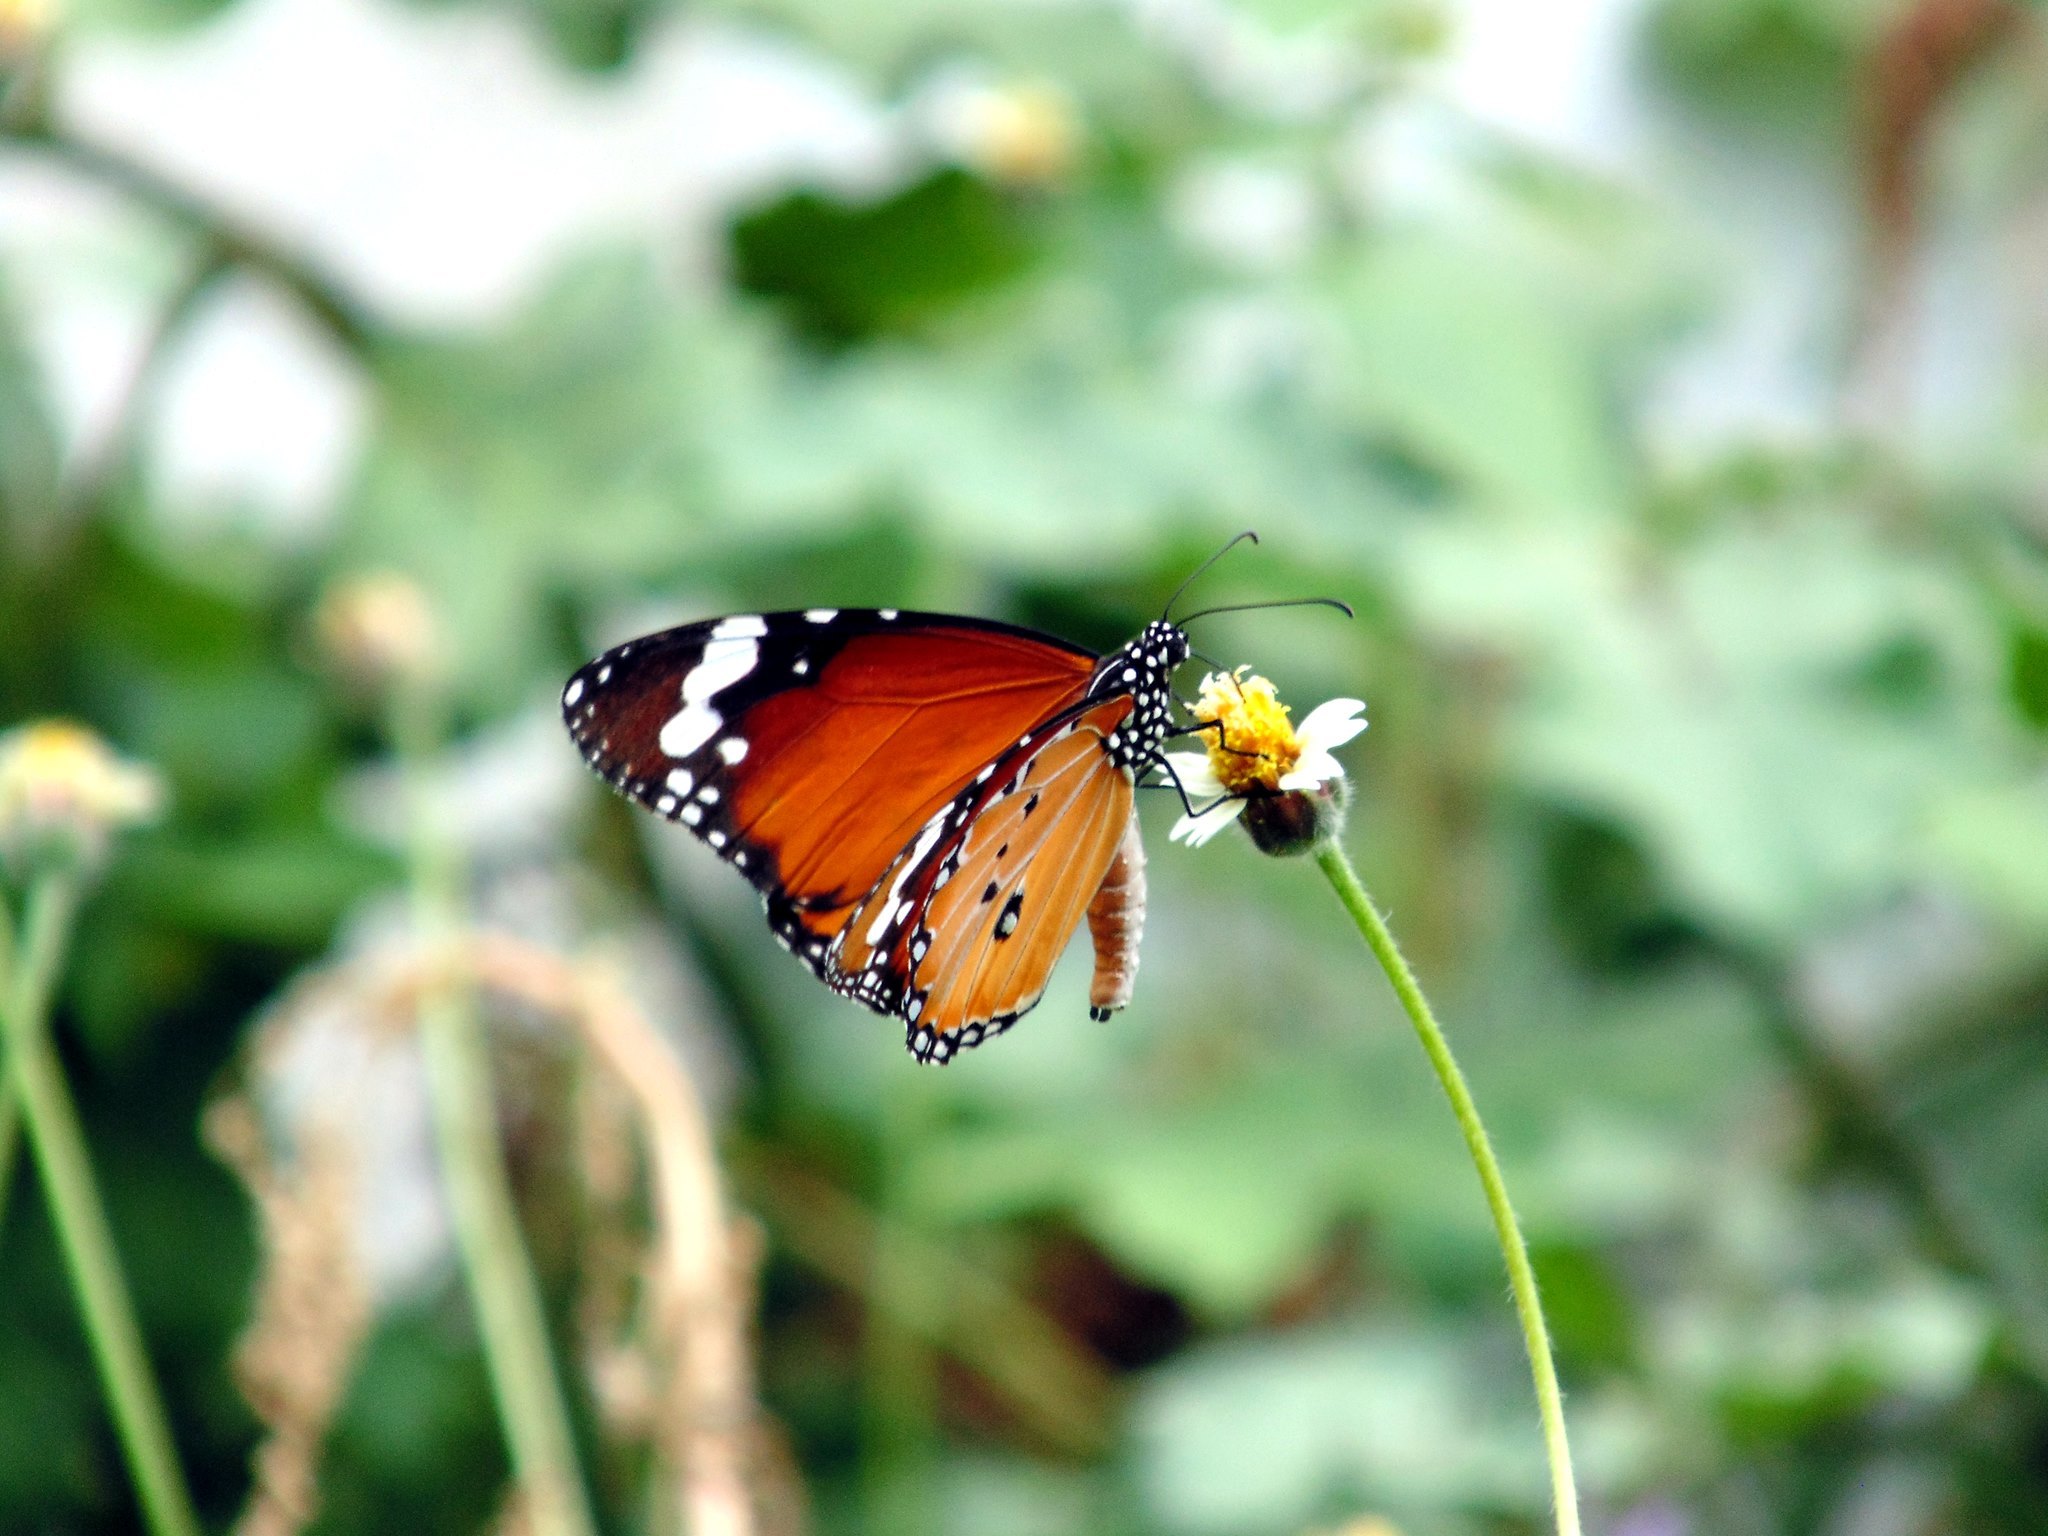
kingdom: Animalia
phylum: Arthropoda
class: Insecta
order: Lepidoptera
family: Nymphalidae
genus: Danaus
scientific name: Danaus chrysippus
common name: Plain tiger
